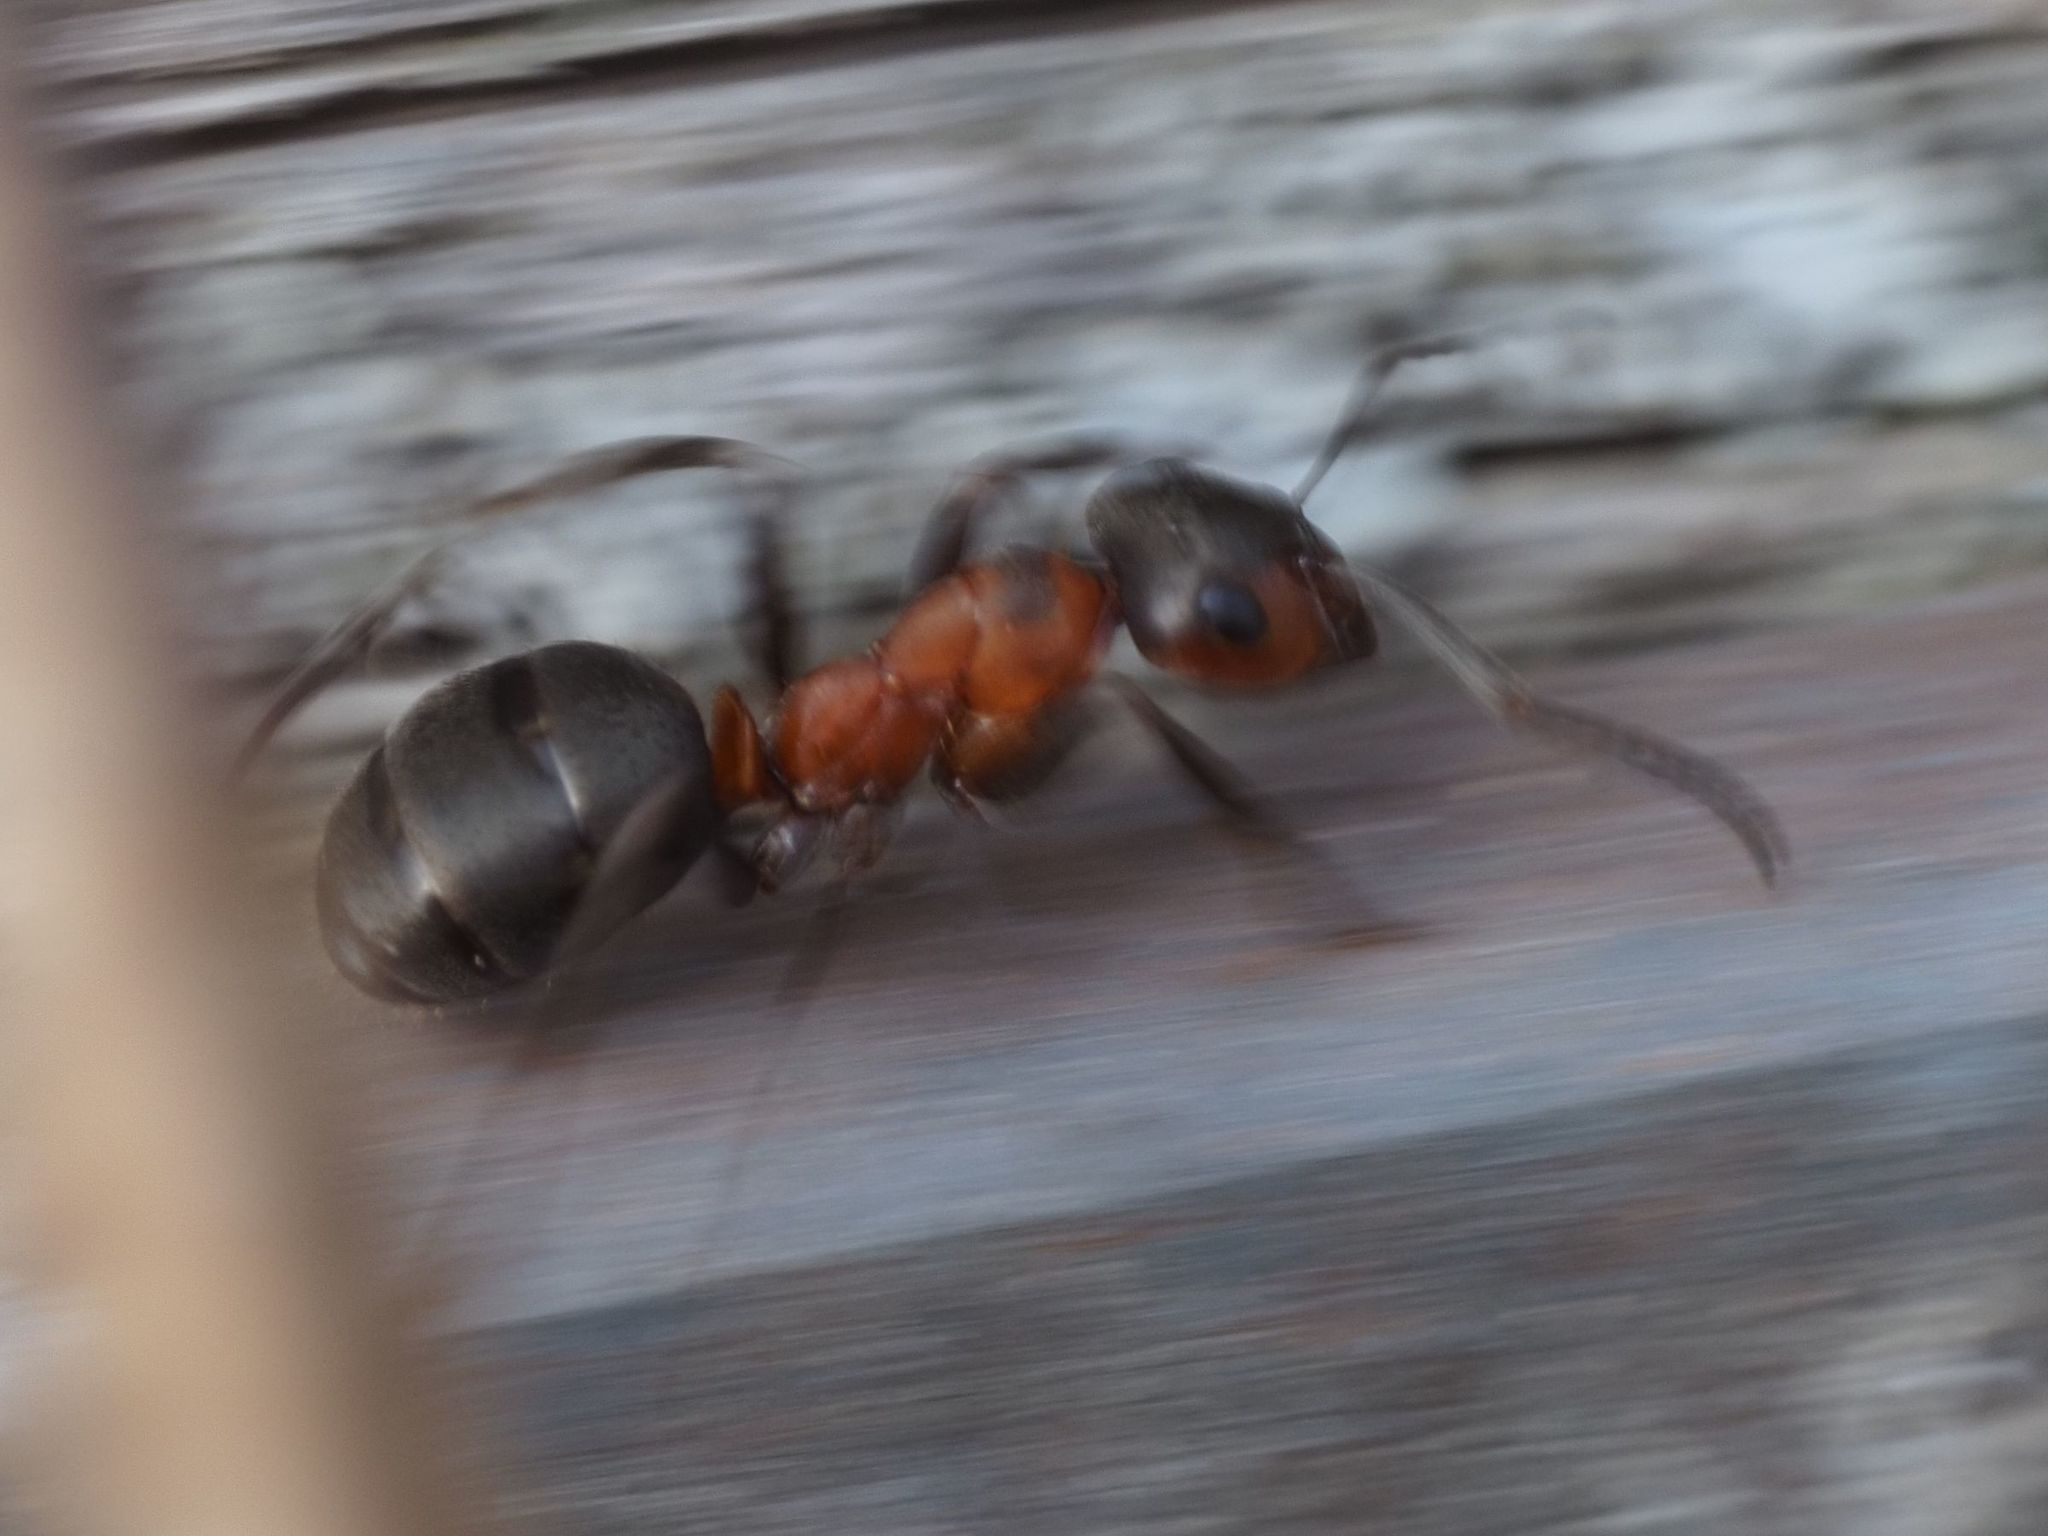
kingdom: Animalia
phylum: Arthropoda
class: Insecta
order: Hymenoptera
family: Formicidae
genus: Formica
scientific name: Formica rufa
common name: Red wood ant
